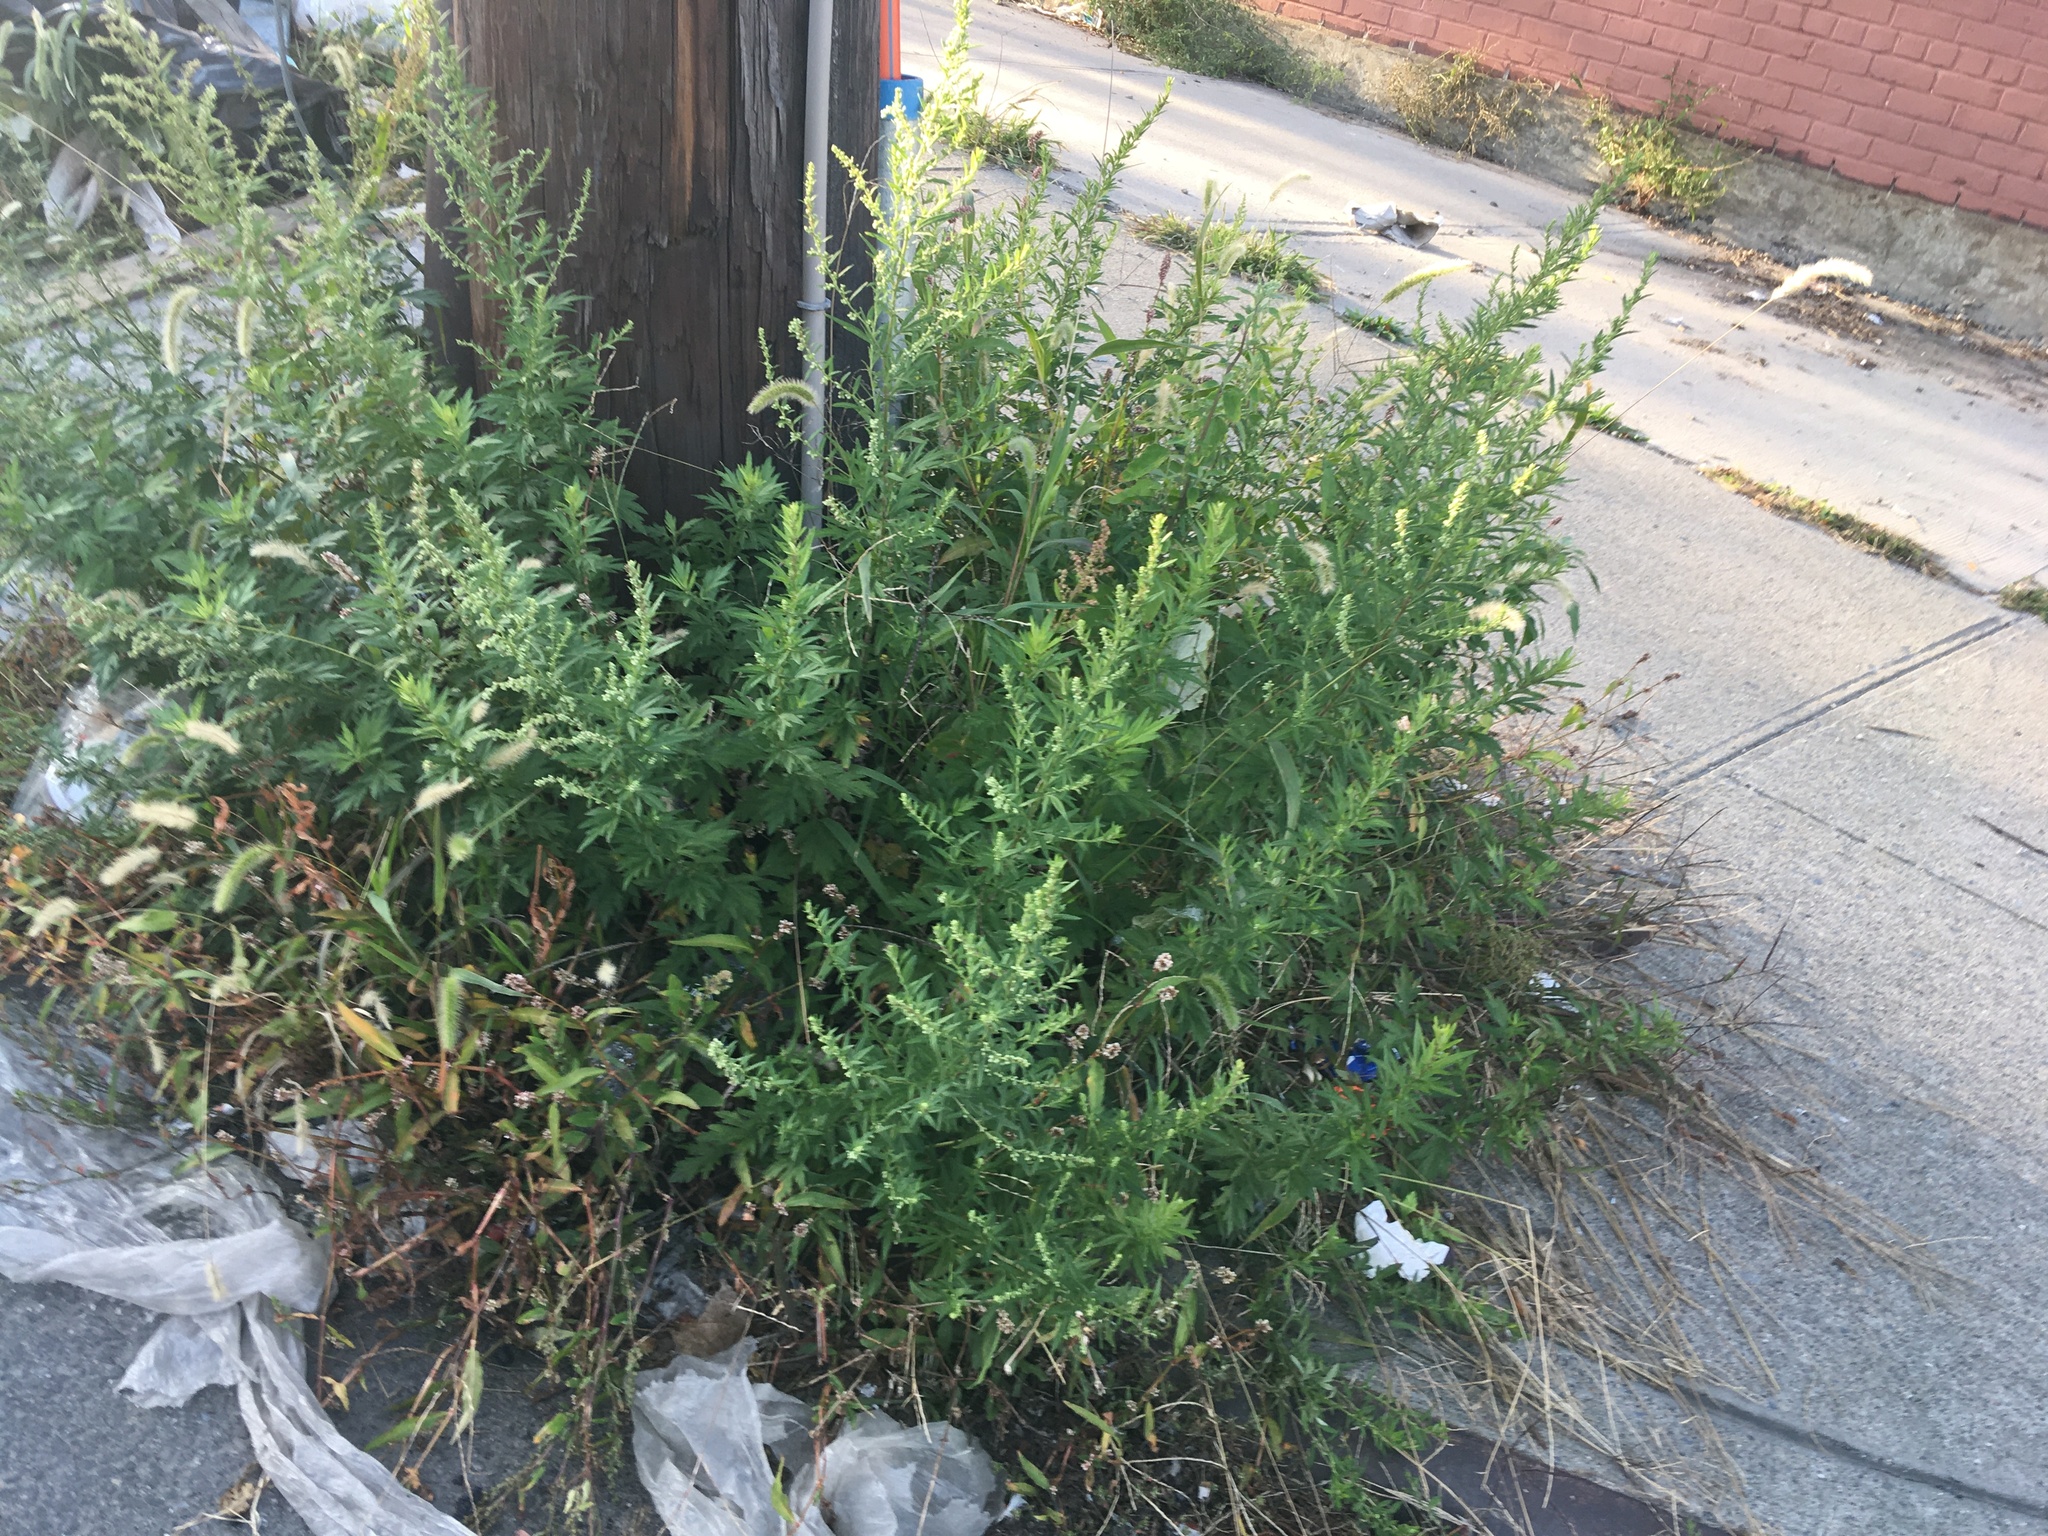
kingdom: Plantae
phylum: Tracheophyta
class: Magnoliopsida
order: Asterales
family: Asteraceae
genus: Artemisia
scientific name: Artemisia vulgaris
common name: Mugwort
